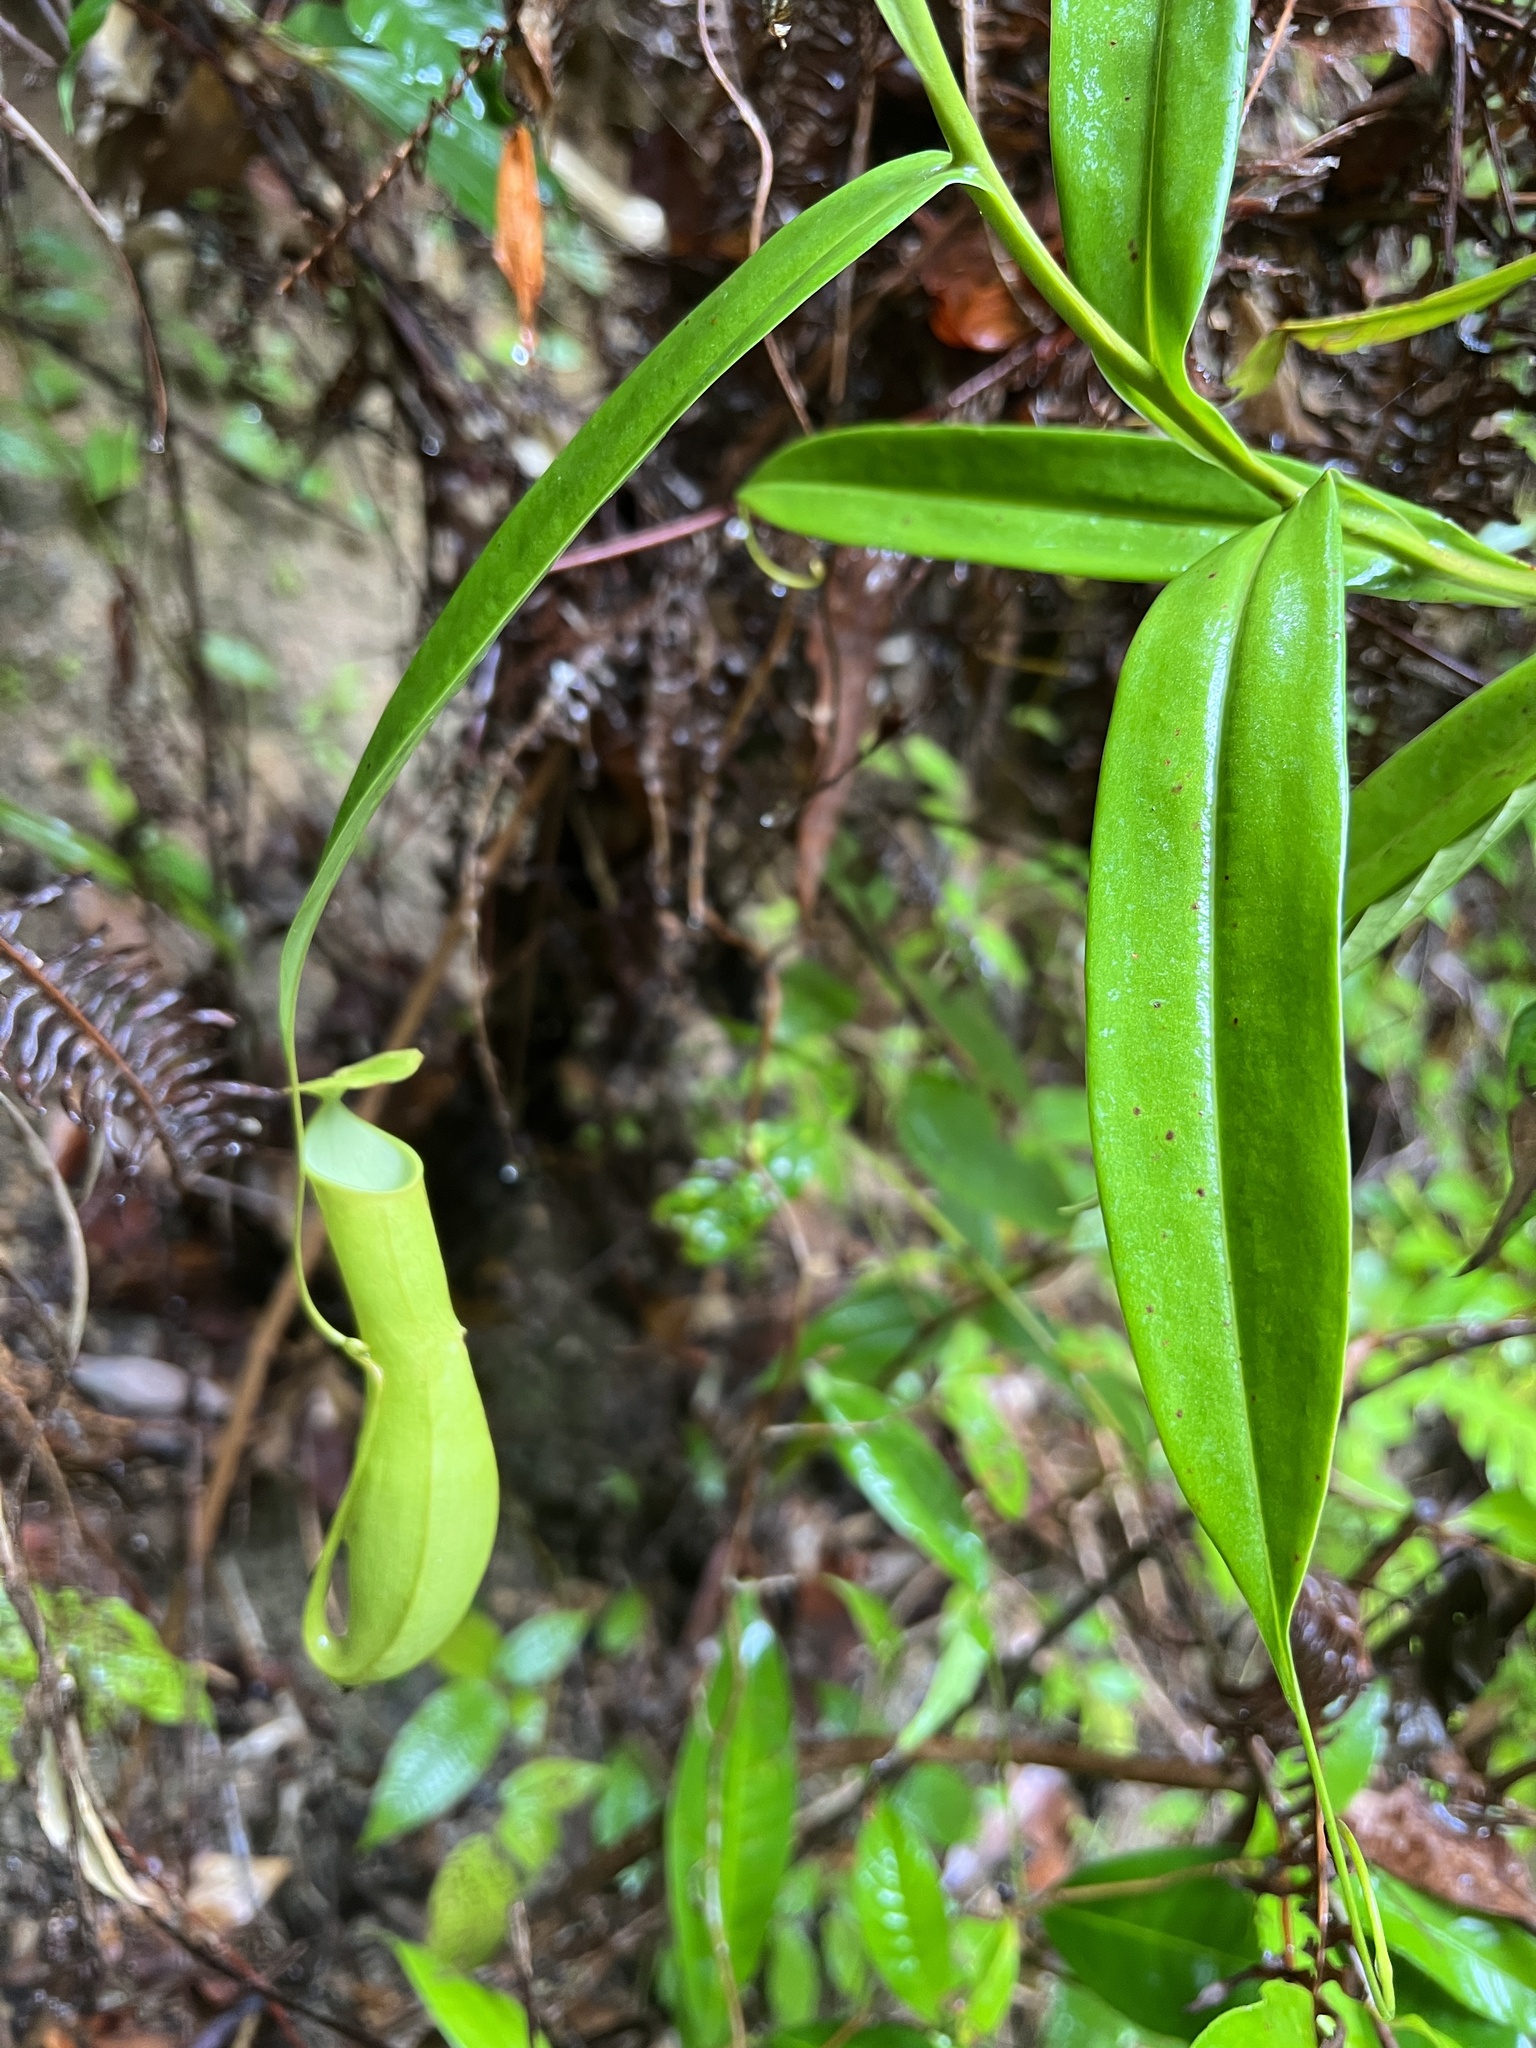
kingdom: Plantae
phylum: Tracheophyta
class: Magnoliopsida
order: Caryophyllales
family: Nepenthaceae
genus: Nepenthes
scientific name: Nepenthes gracilis
